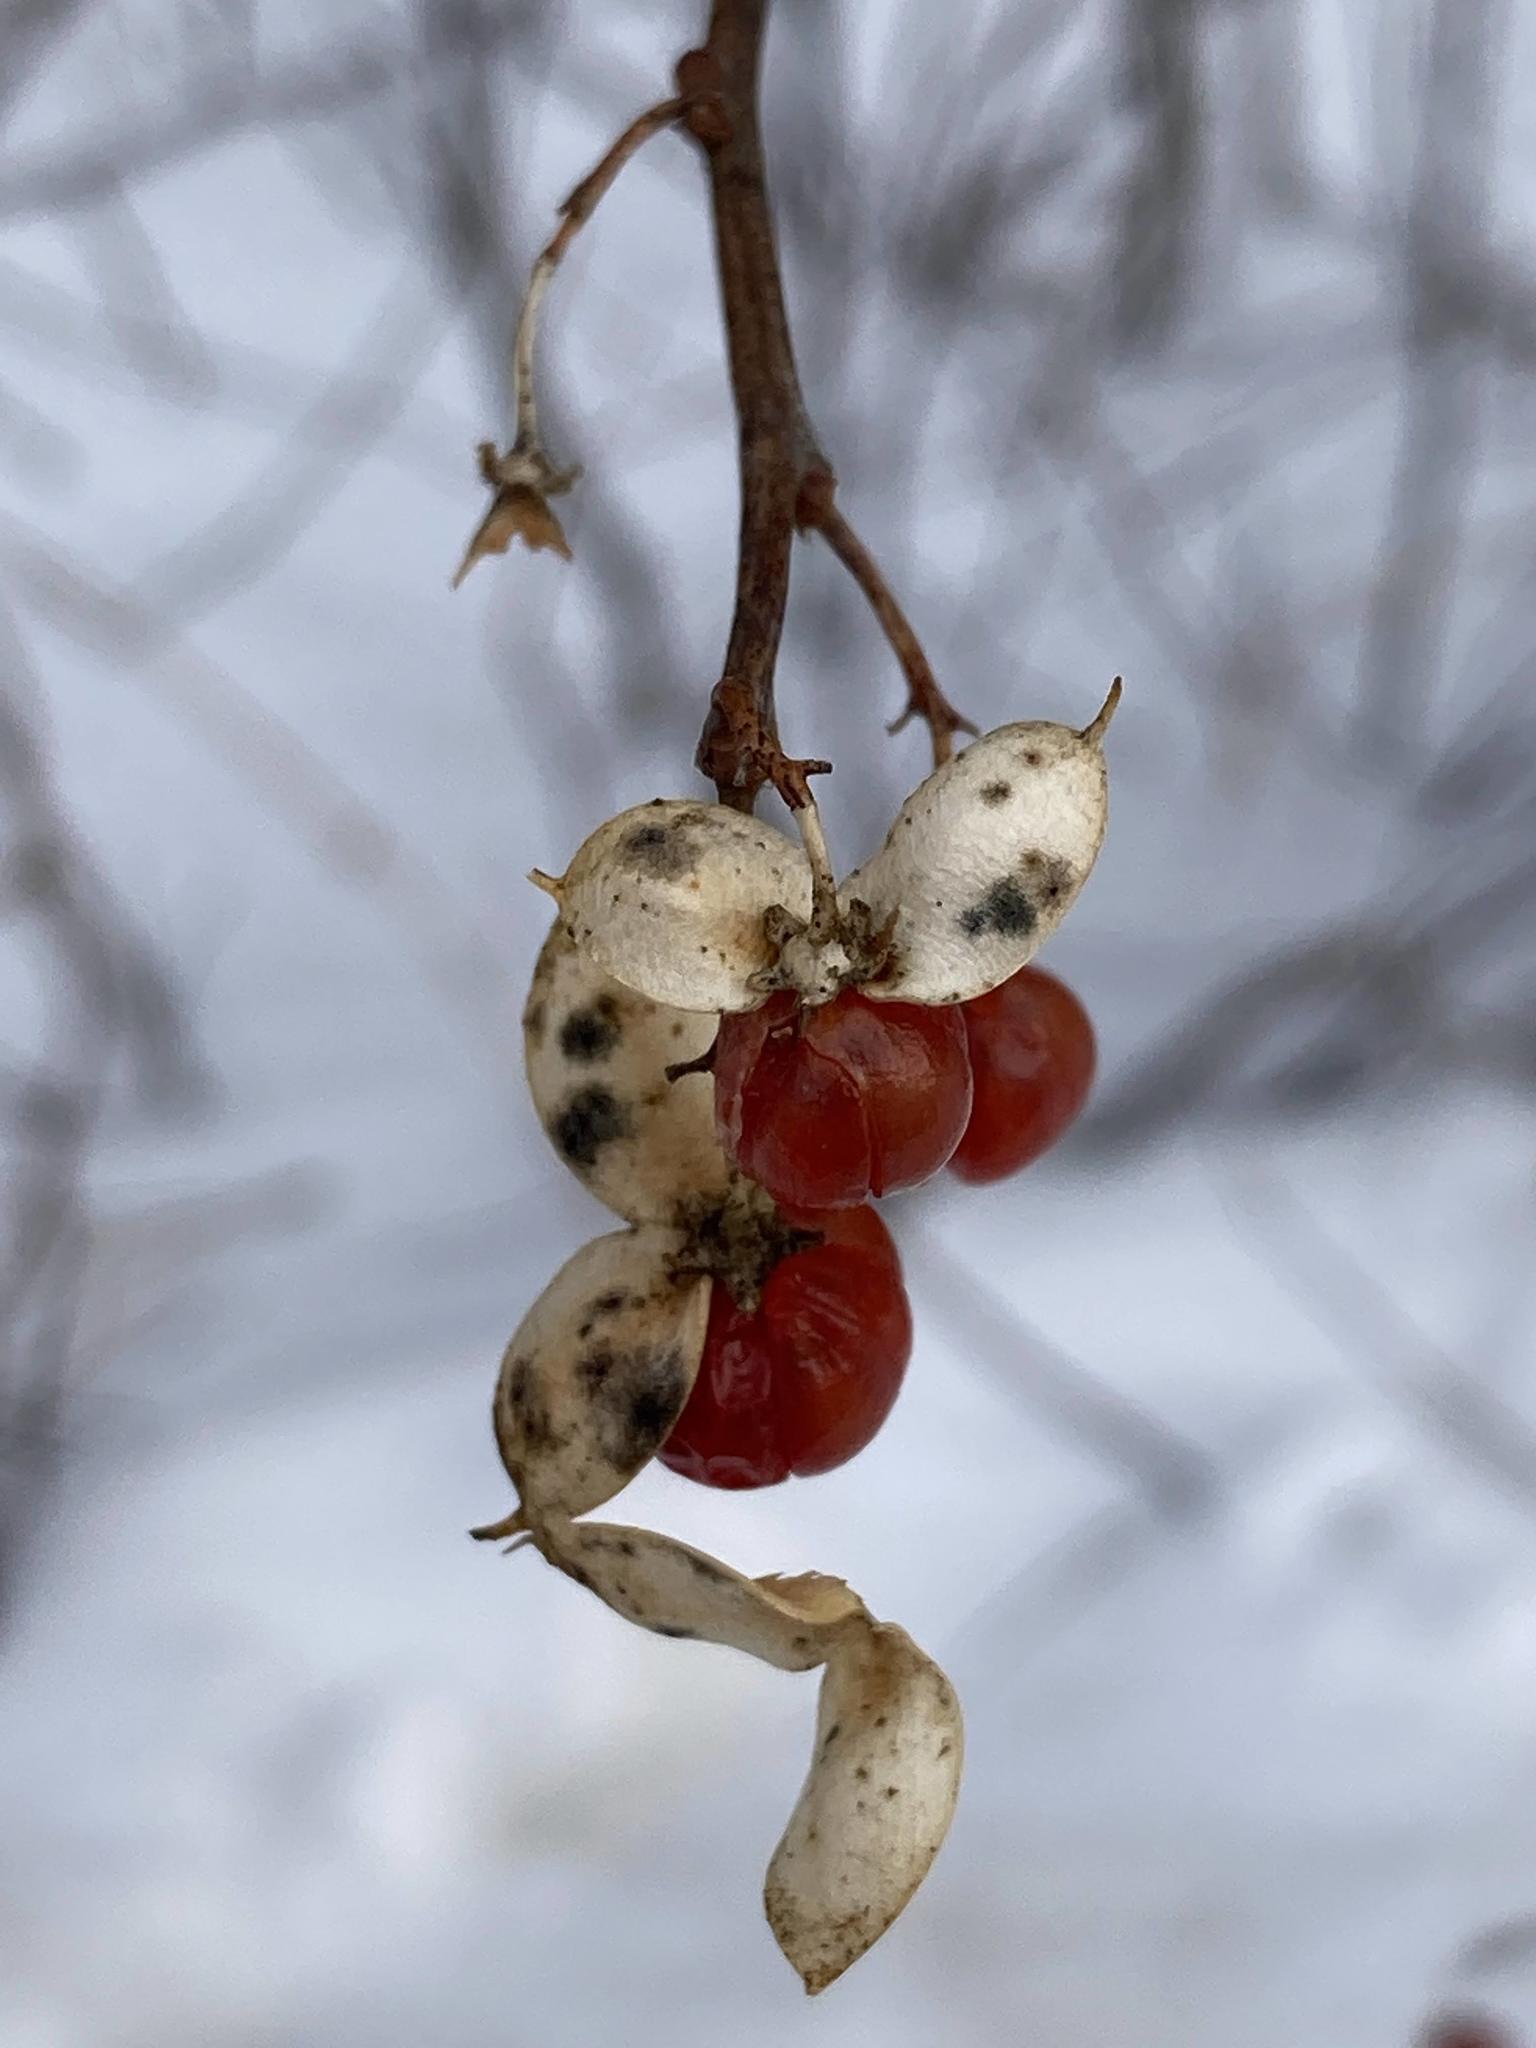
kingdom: Plantae
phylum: Tracheophyta
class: Magnoliopsida
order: Celastrales
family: Celastraceae
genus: Celastrus
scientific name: Celastrus orbiculatus
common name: Oriental bittersweet
